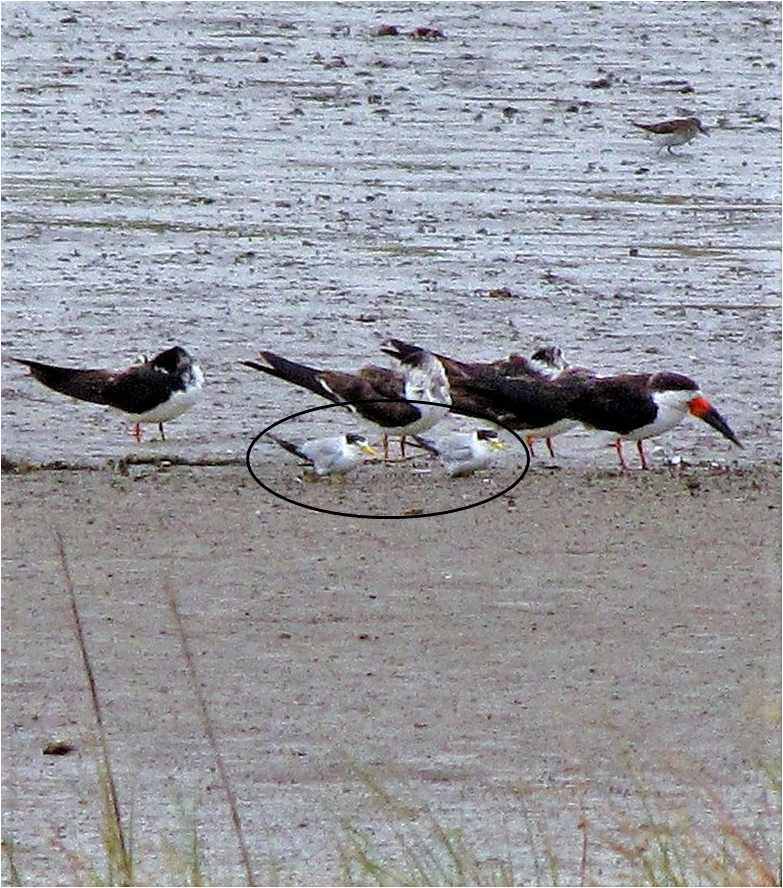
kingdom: Animalia
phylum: Chordata
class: Aves
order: Charadriiformes
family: Laridae
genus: Sternula
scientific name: Sternula superciliaris
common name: Yellow-billed tern
